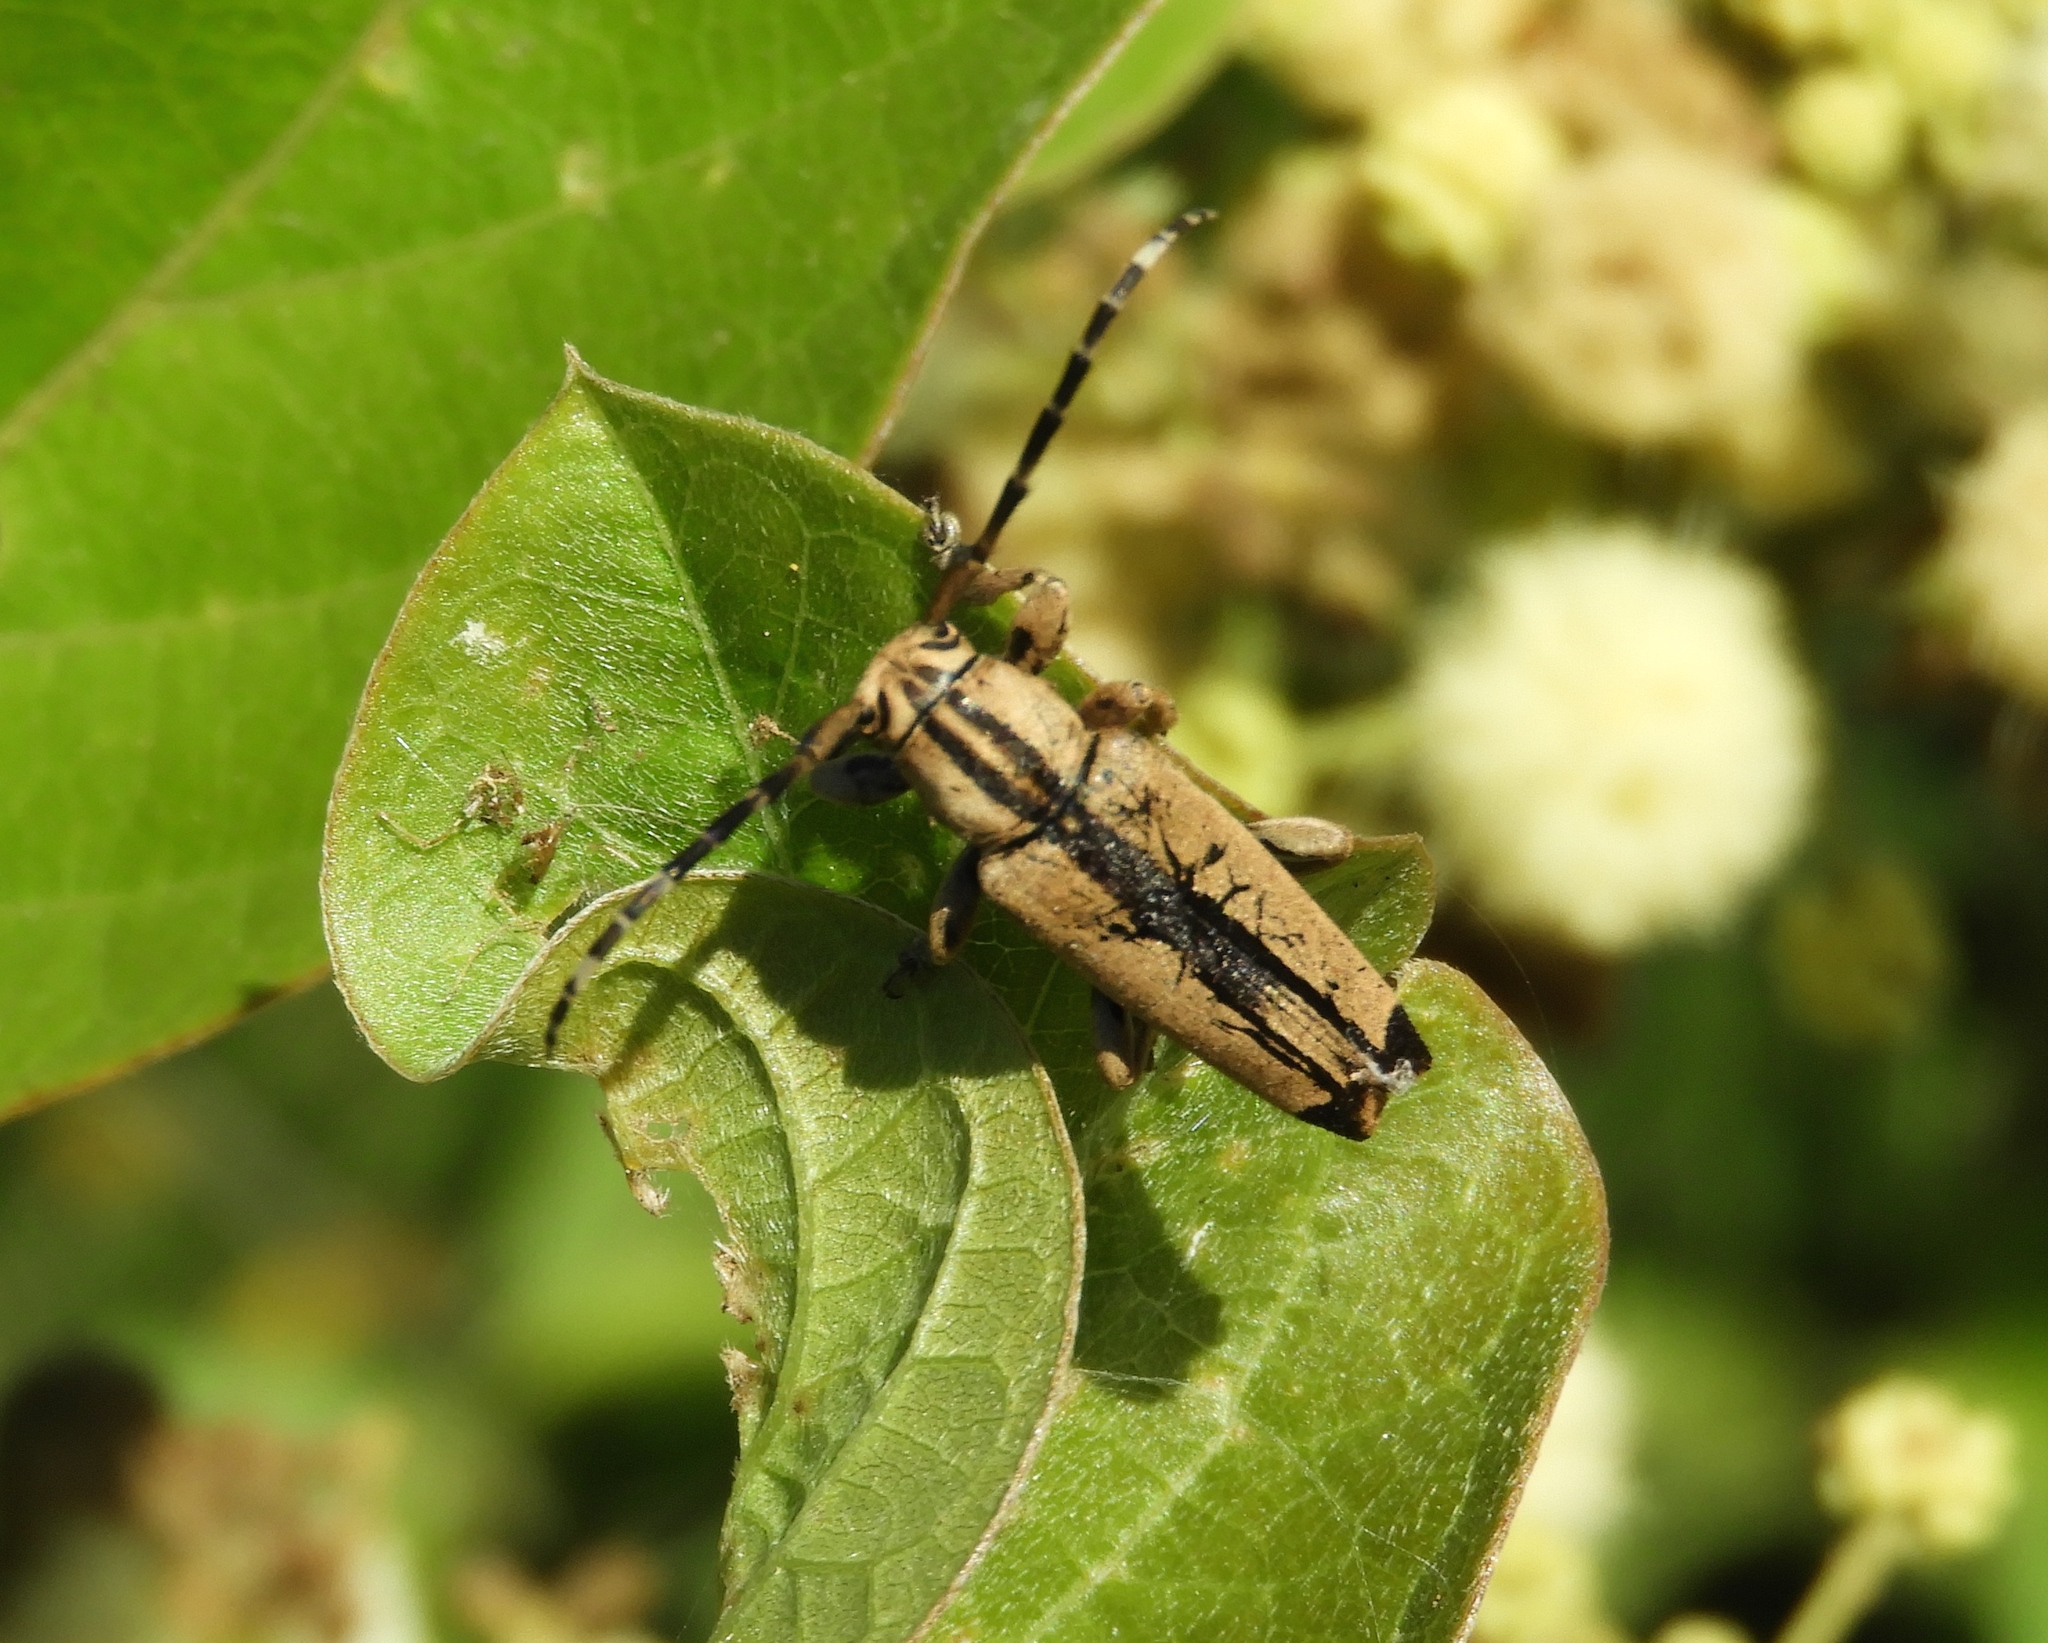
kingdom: Animalia
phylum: Arthropoda
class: Insecta
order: Coleoptera
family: Cerambycidae
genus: Ptericoptus
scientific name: Ptericoptus caudalis
